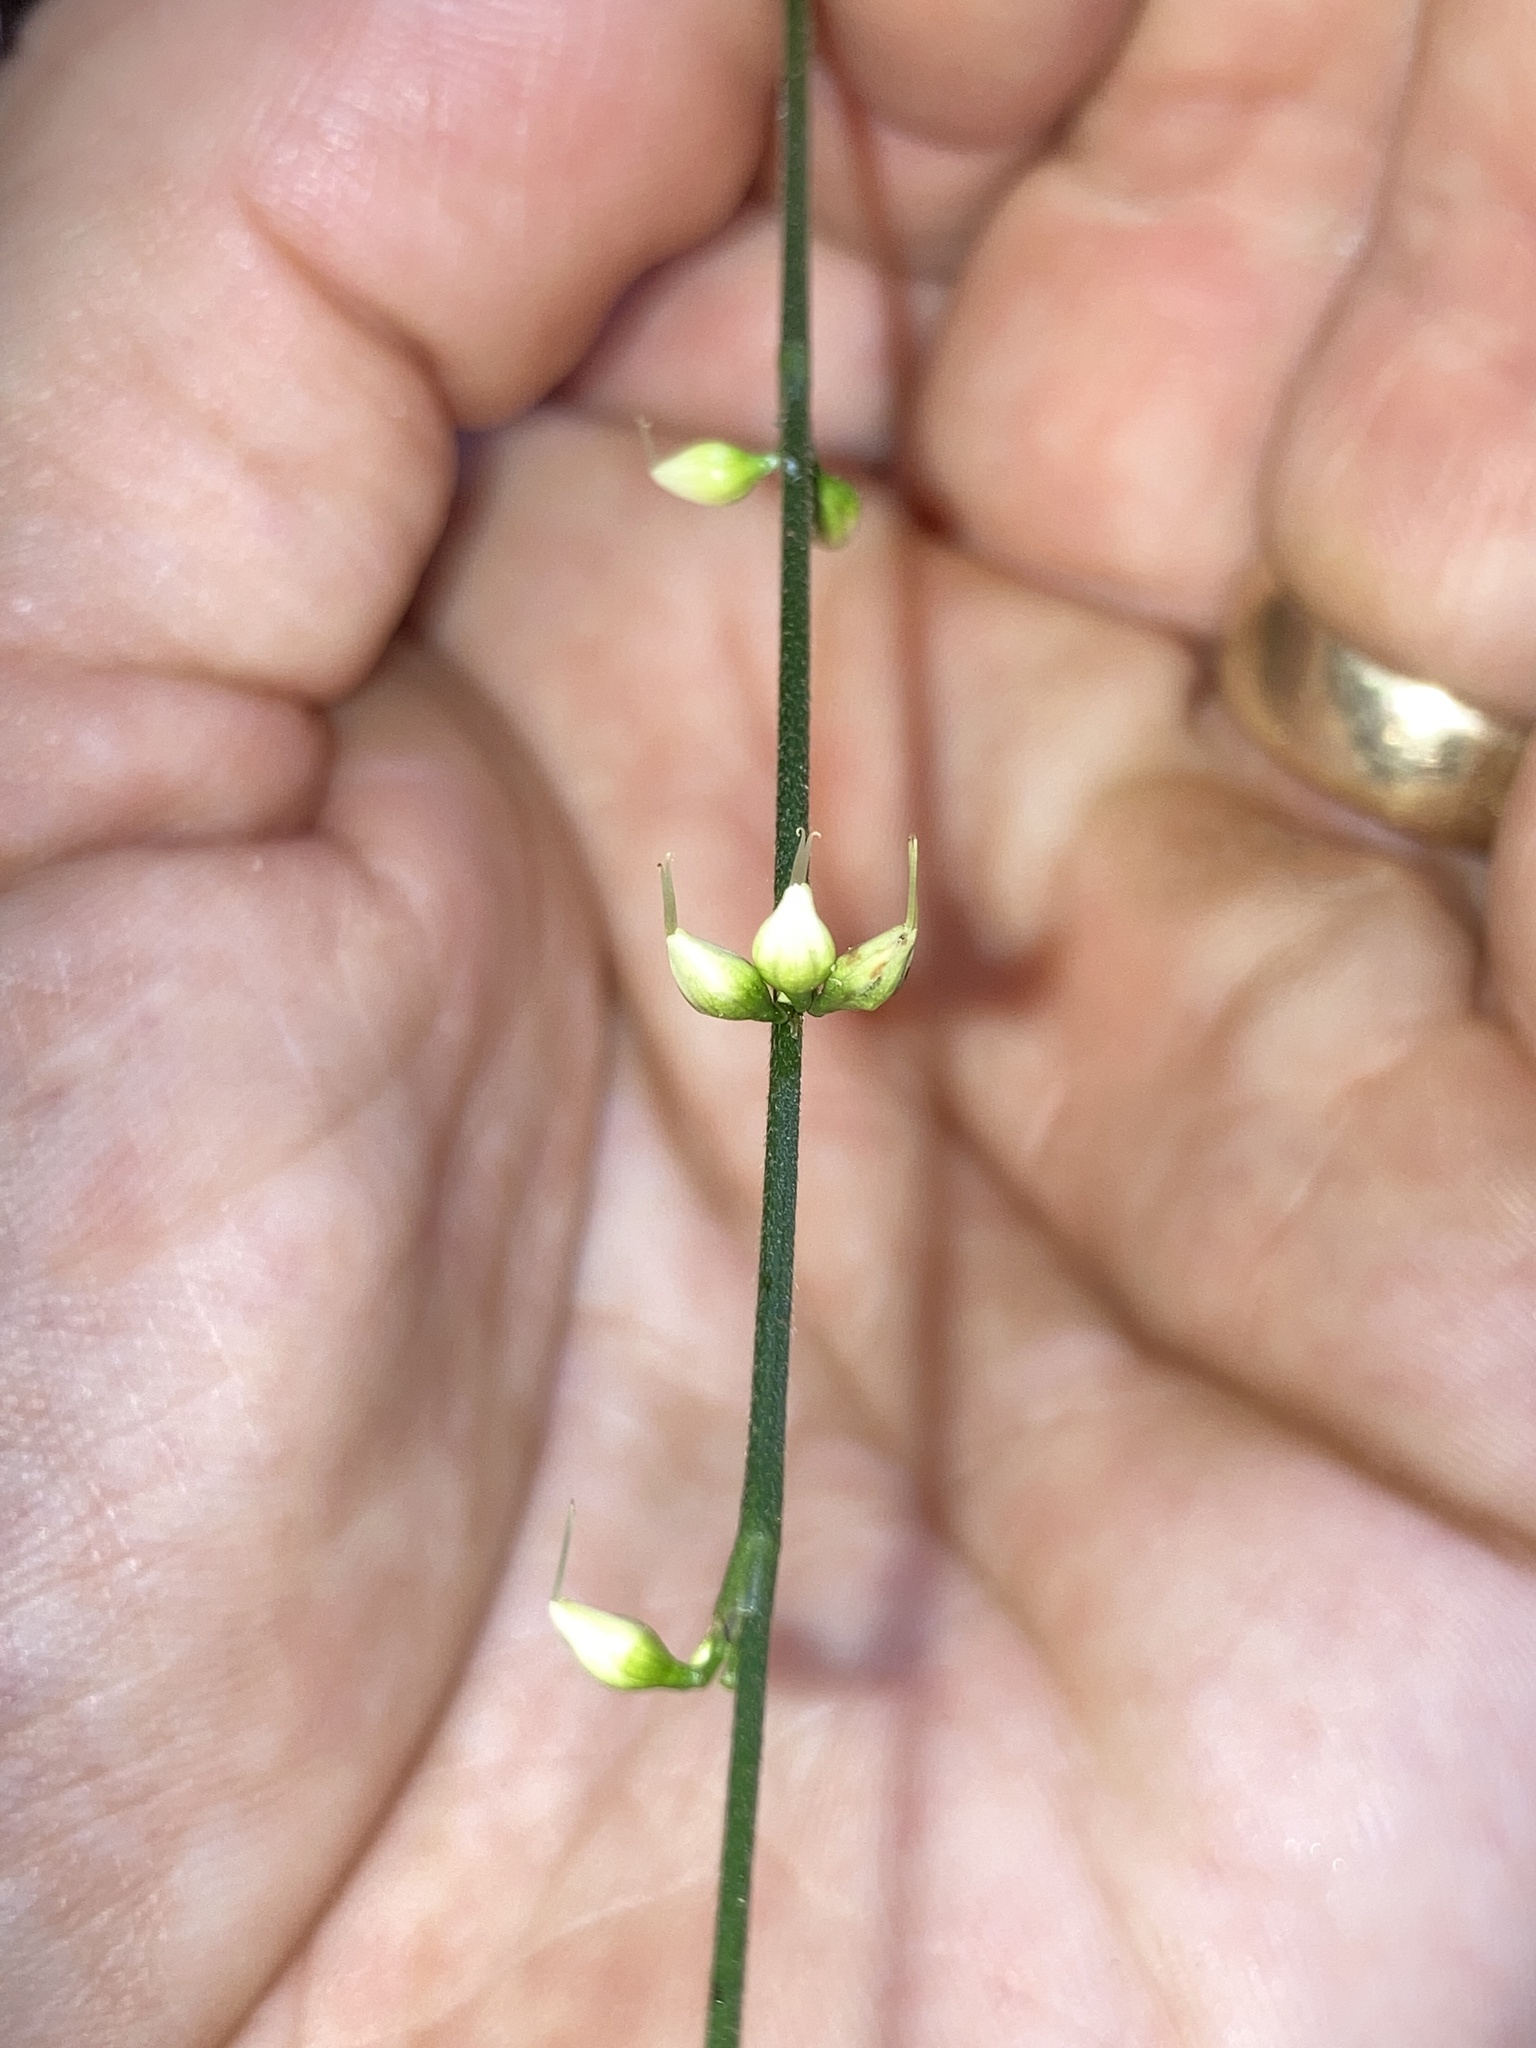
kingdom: Plantae
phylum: Tracheophyta
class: Magnoliopsida
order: Caryophyllales
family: Polygonaceae
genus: Persicaria
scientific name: Persicaria virginiana
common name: Jumpseed
